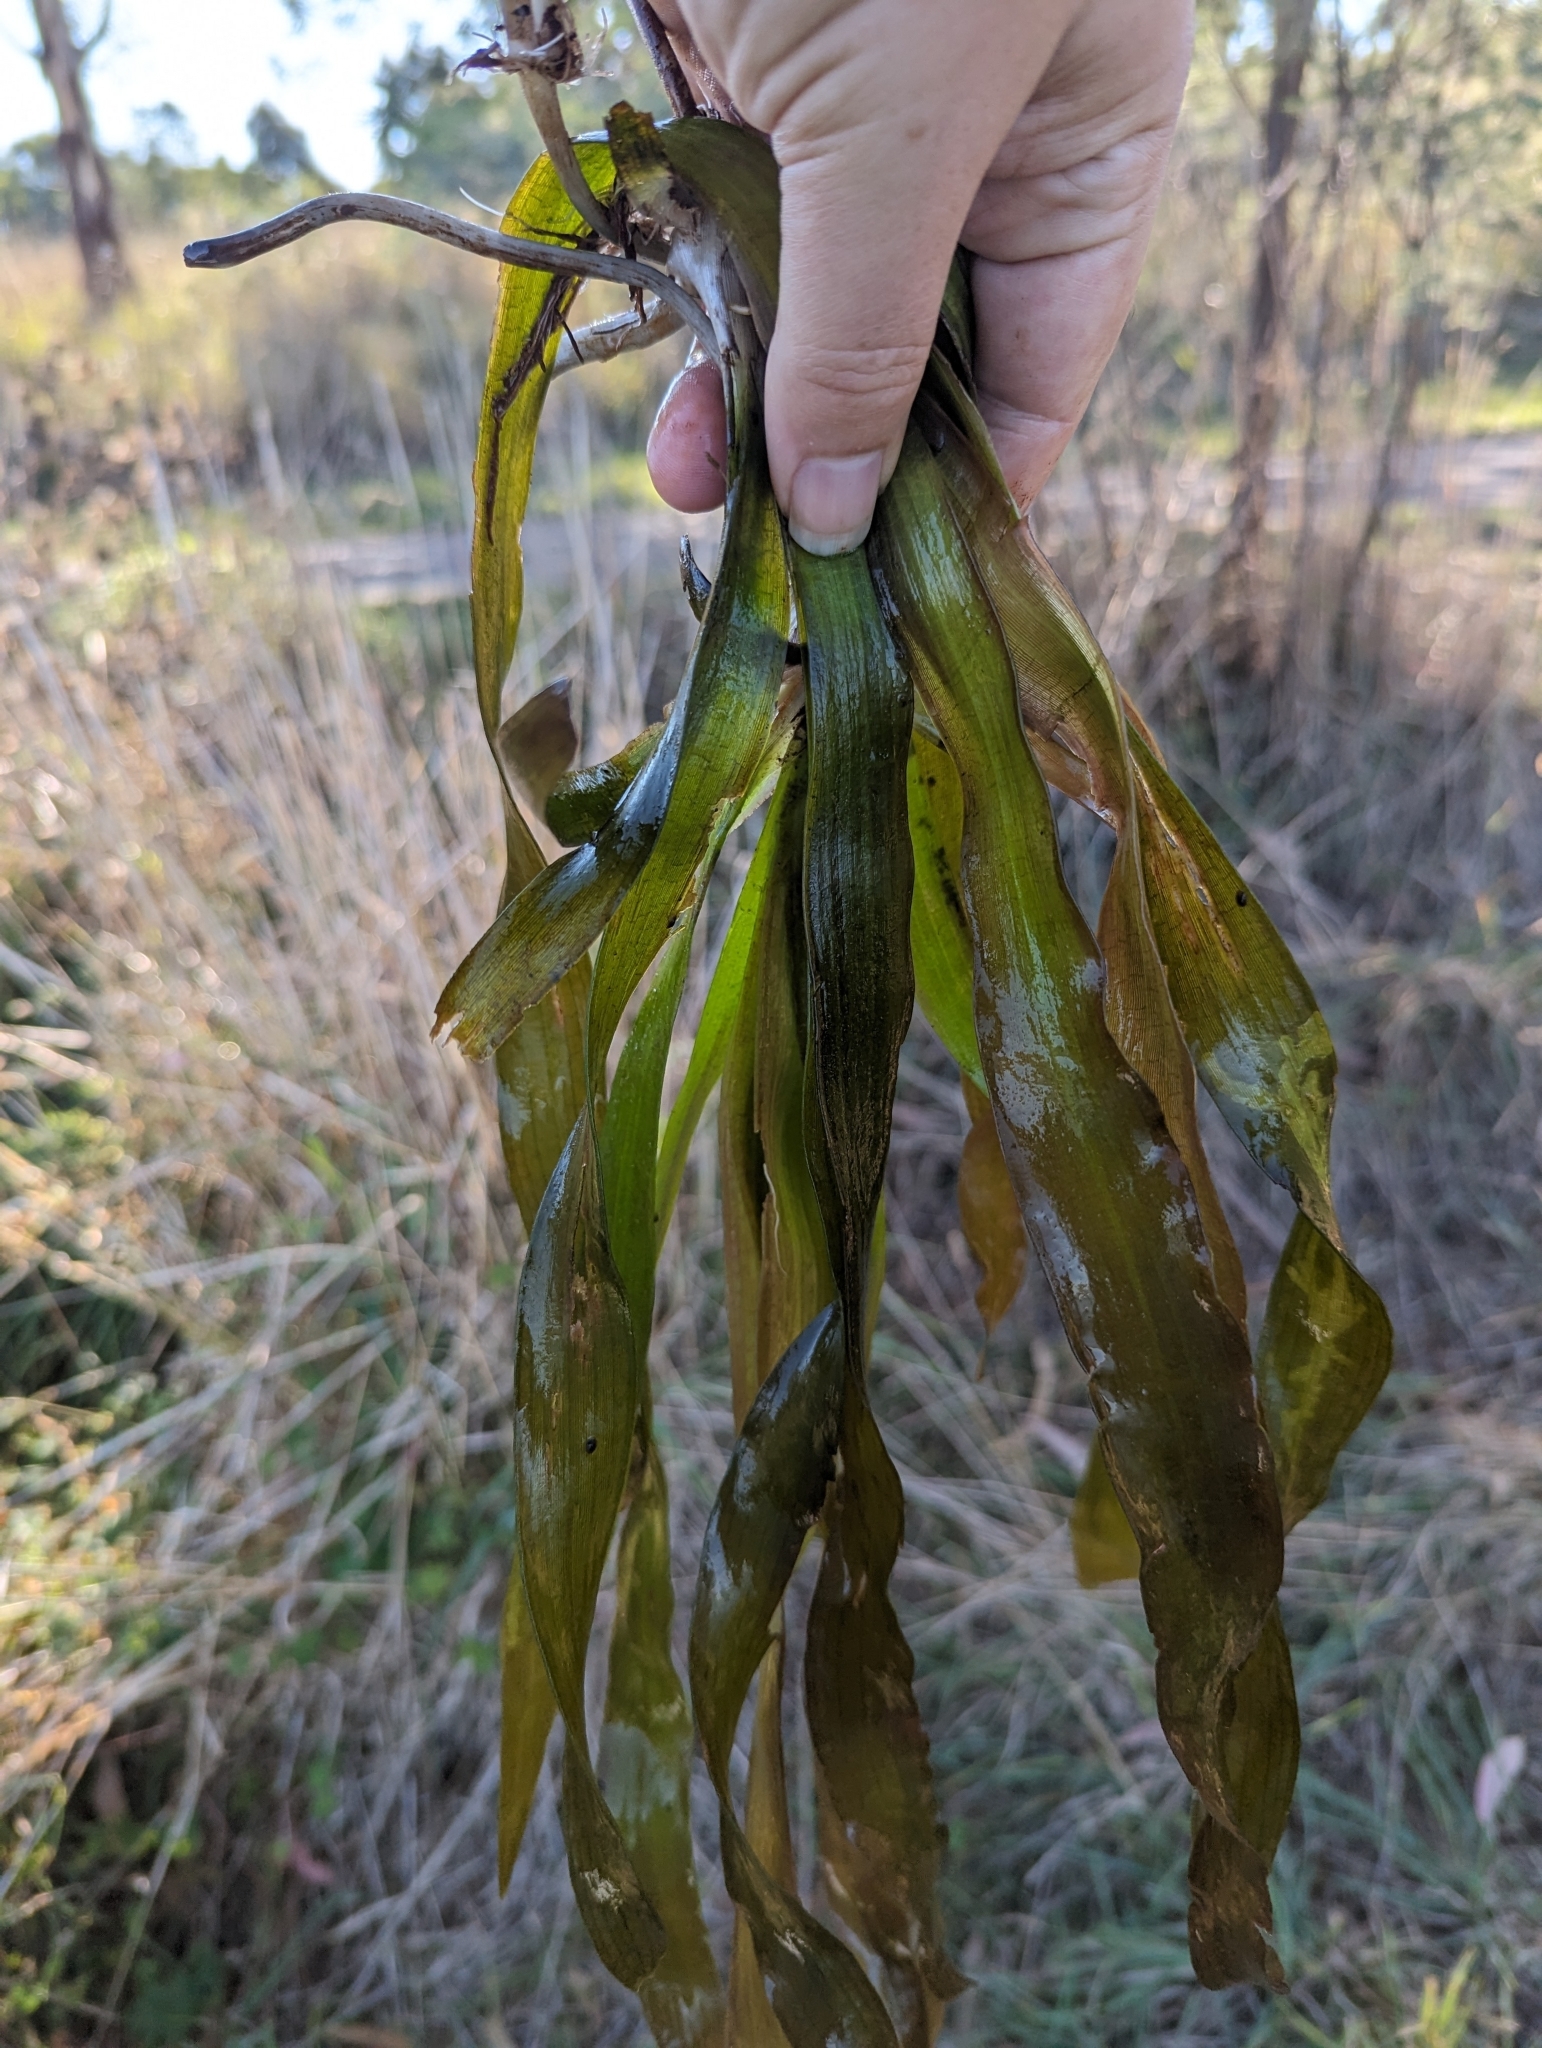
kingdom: Plantae
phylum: Tracheophyta
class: Liliopsida
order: Alismatales
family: Hydrocharitaceae
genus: Vallisneria
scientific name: Vallisneria australis
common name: Australian eelgrass
